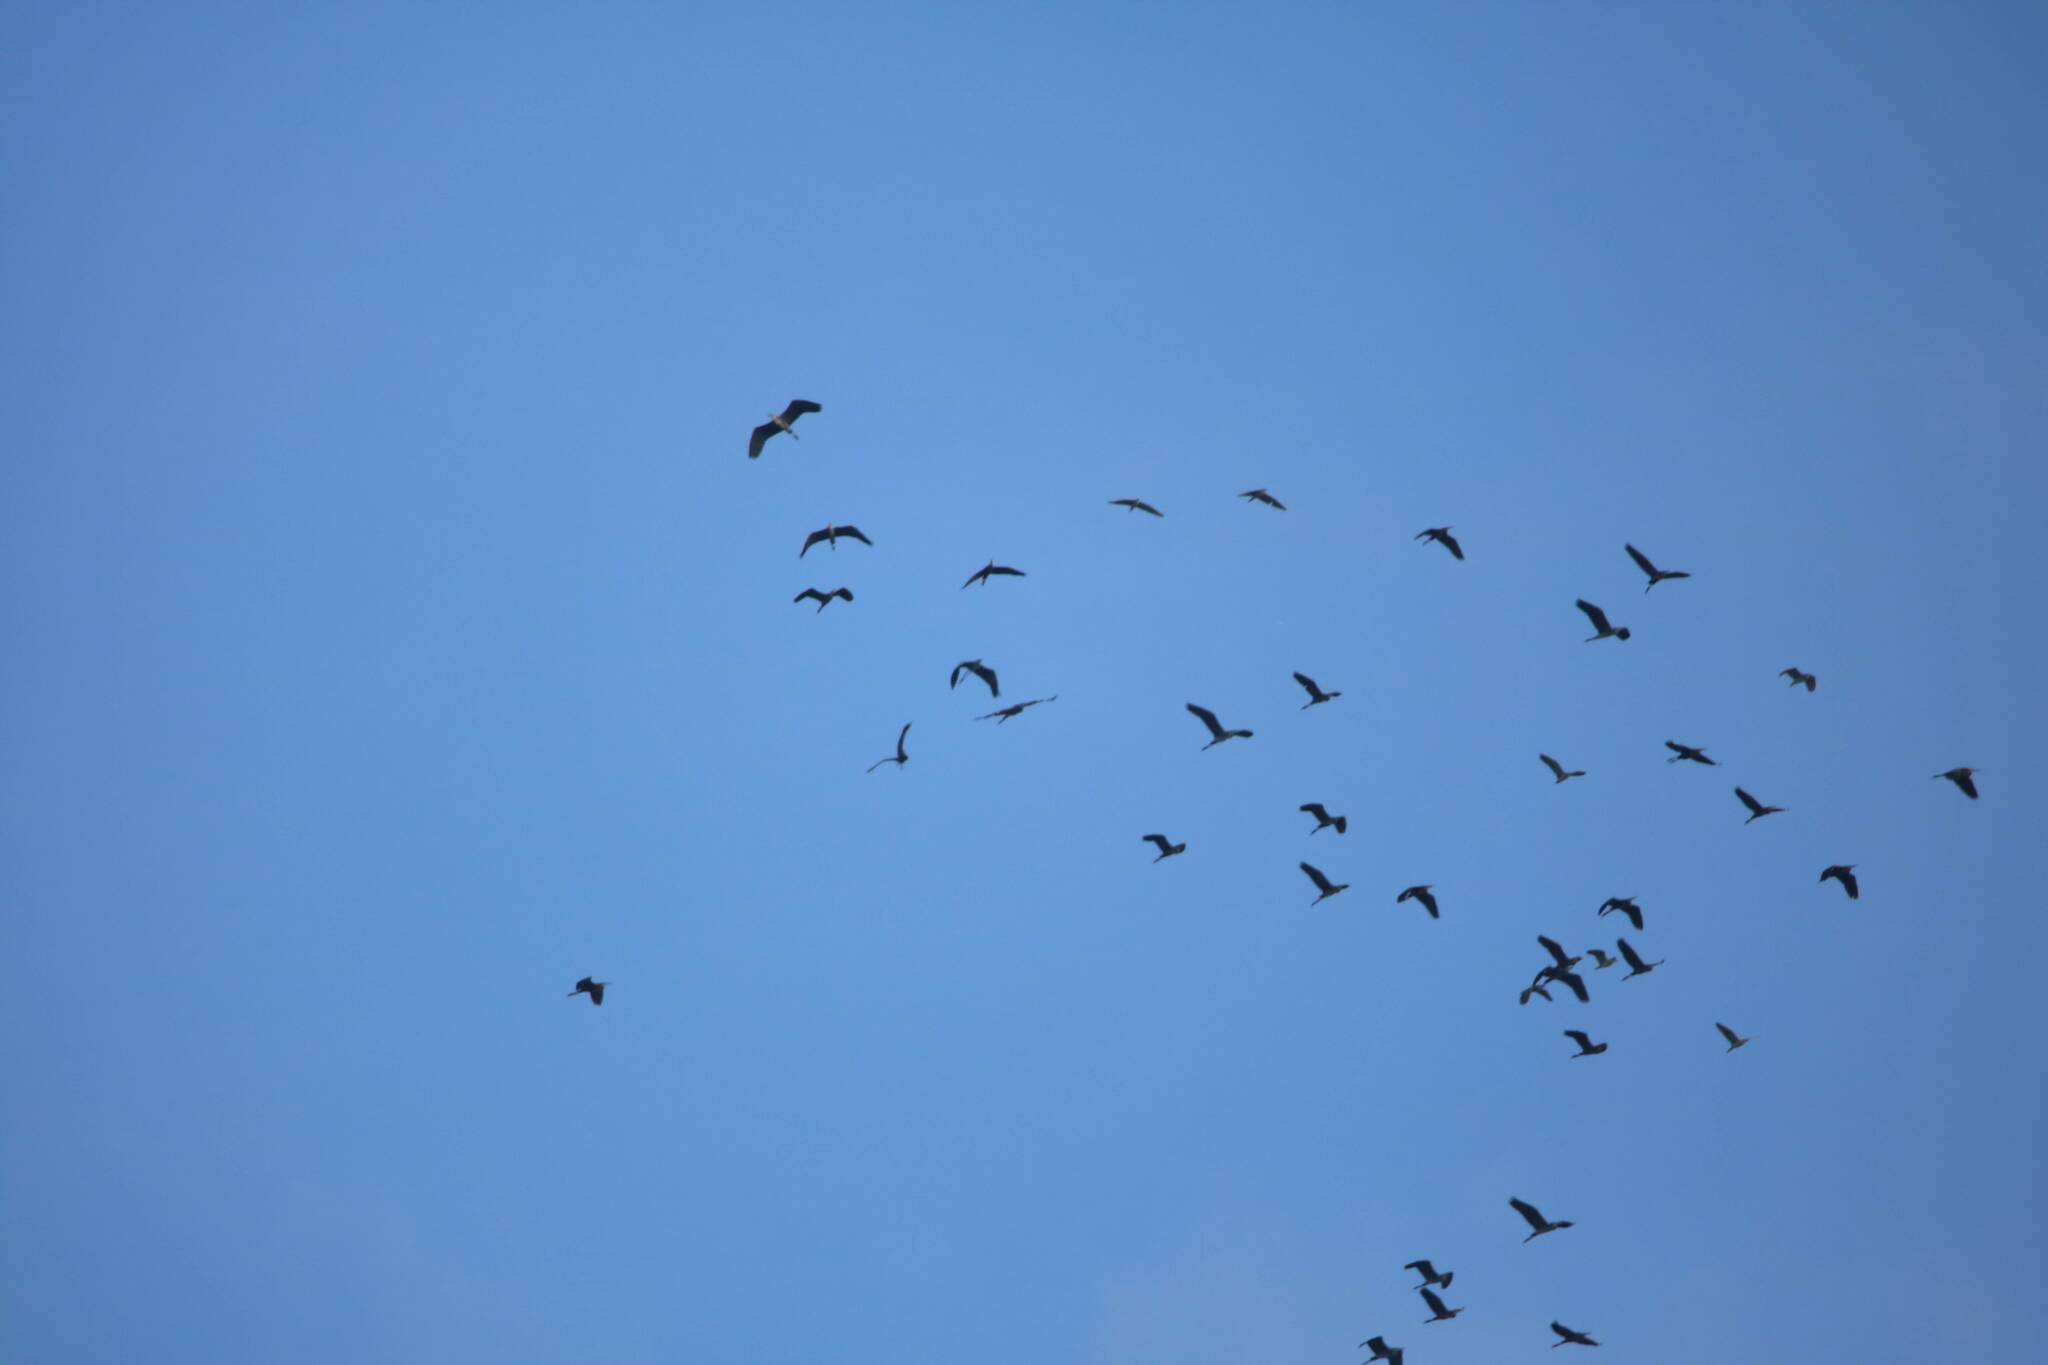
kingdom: Animalia
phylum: Chordata
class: Aves
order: Pelecaniformes
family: Ardeidae
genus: Ardea
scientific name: Ardea cinerea
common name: Grey heron
